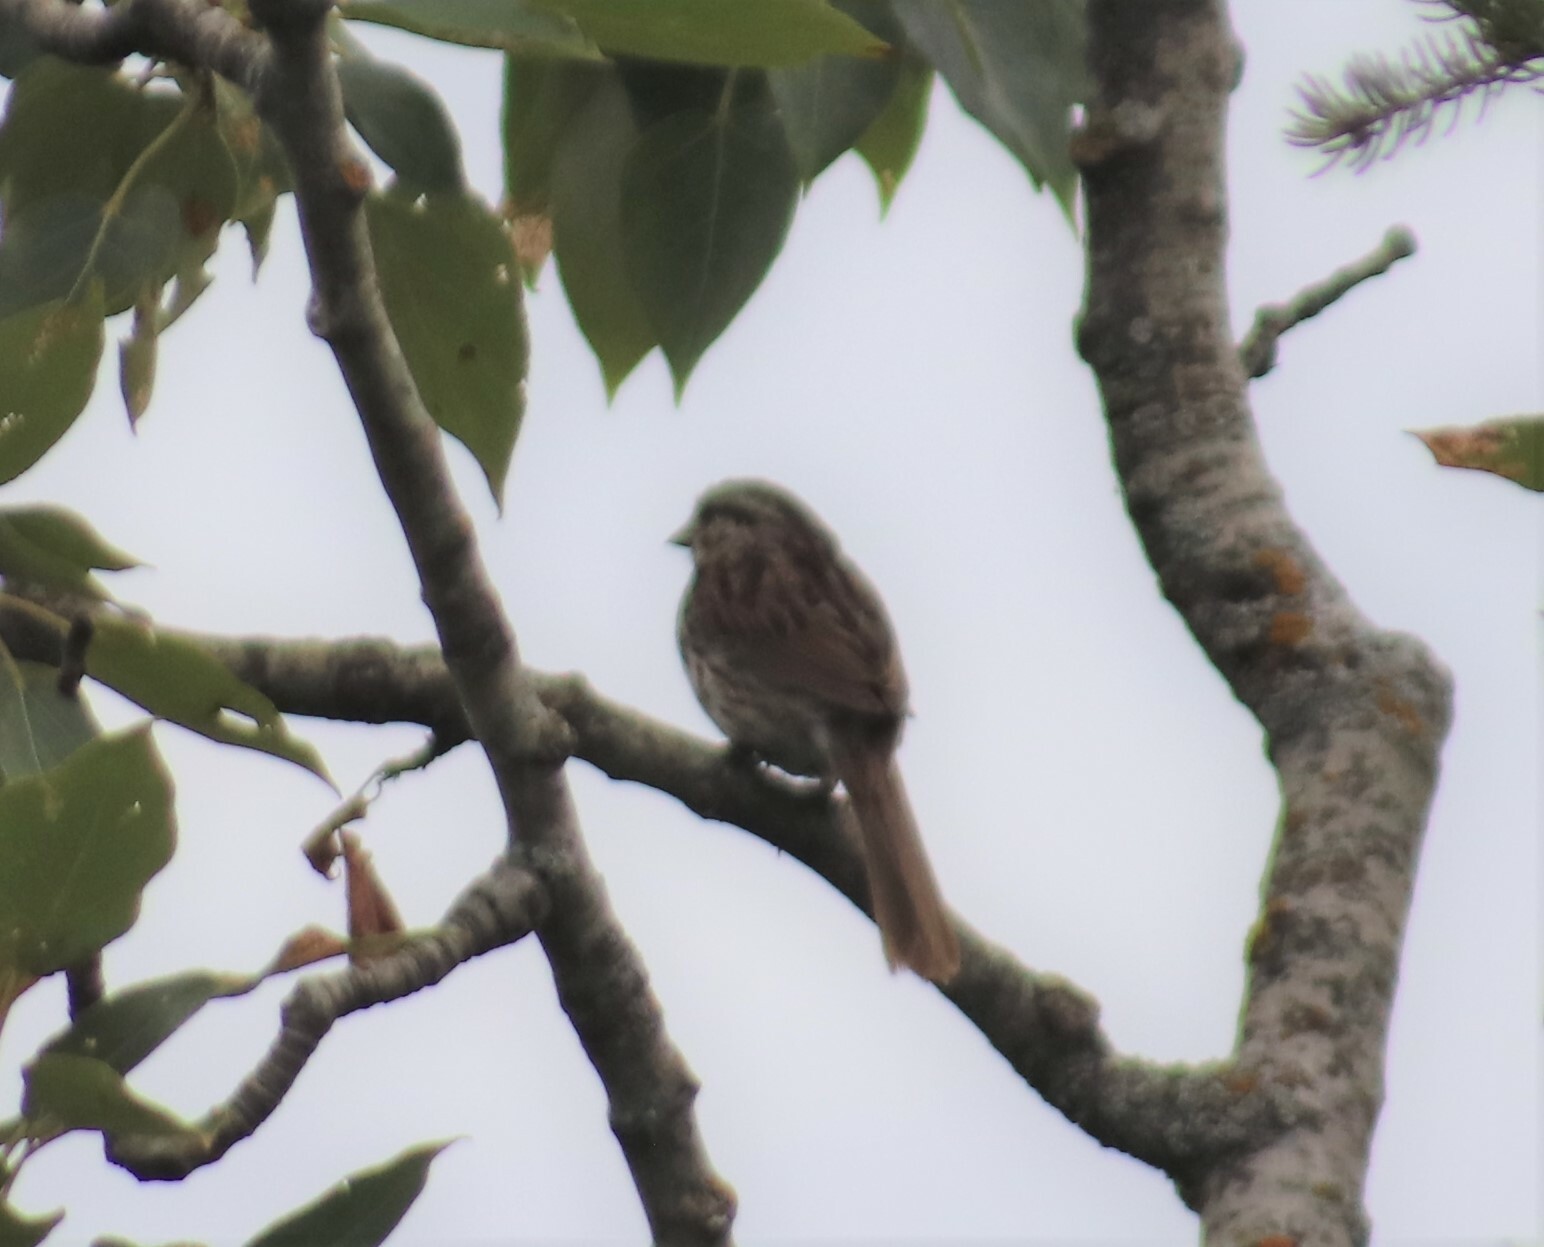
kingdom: Animalia
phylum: Chordata
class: Aves
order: Passeriformes
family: Passerellidae
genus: Melospiza
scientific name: Melospiza melodia
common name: Song sparrow
